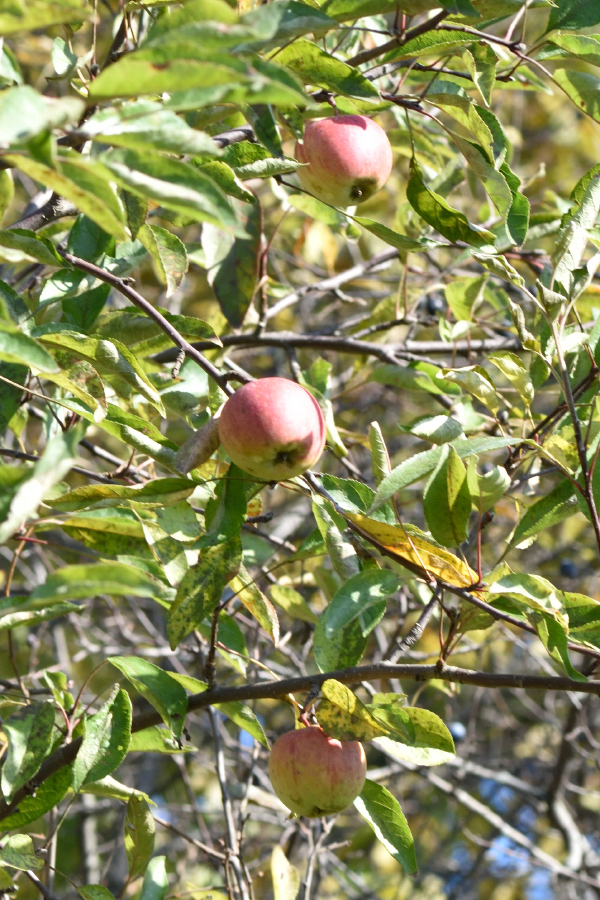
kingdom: Plantae
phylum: Tracheophyta
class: Magnoliopsida
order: Rosales
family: Rosaceae
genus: Malus
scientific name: Malus domestica
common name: Apple
